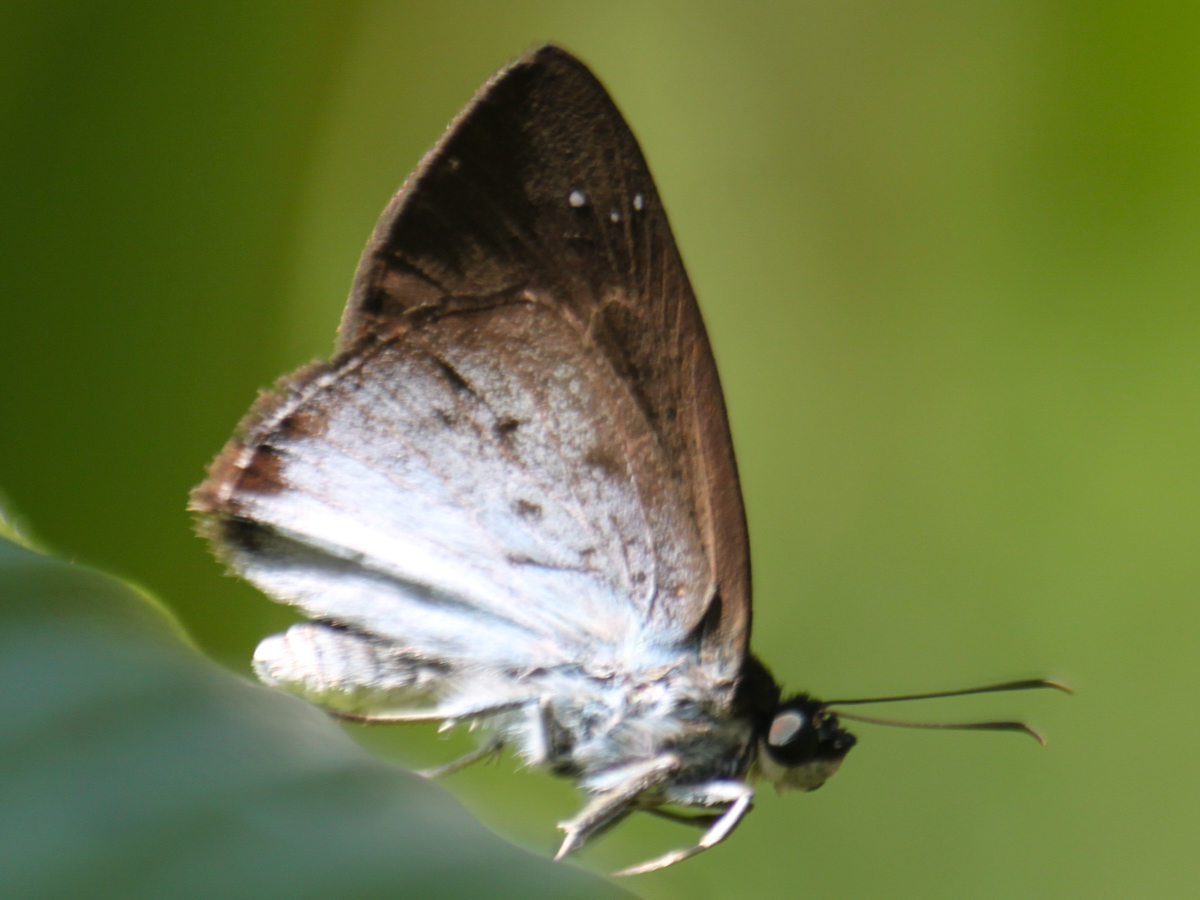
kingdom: Animalia
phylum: Arthropoda
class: Insecta
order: Lepidoptera
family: Hesperiidae
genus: Tagiades
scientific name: Tagiades gana
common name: Suffused snow flat
